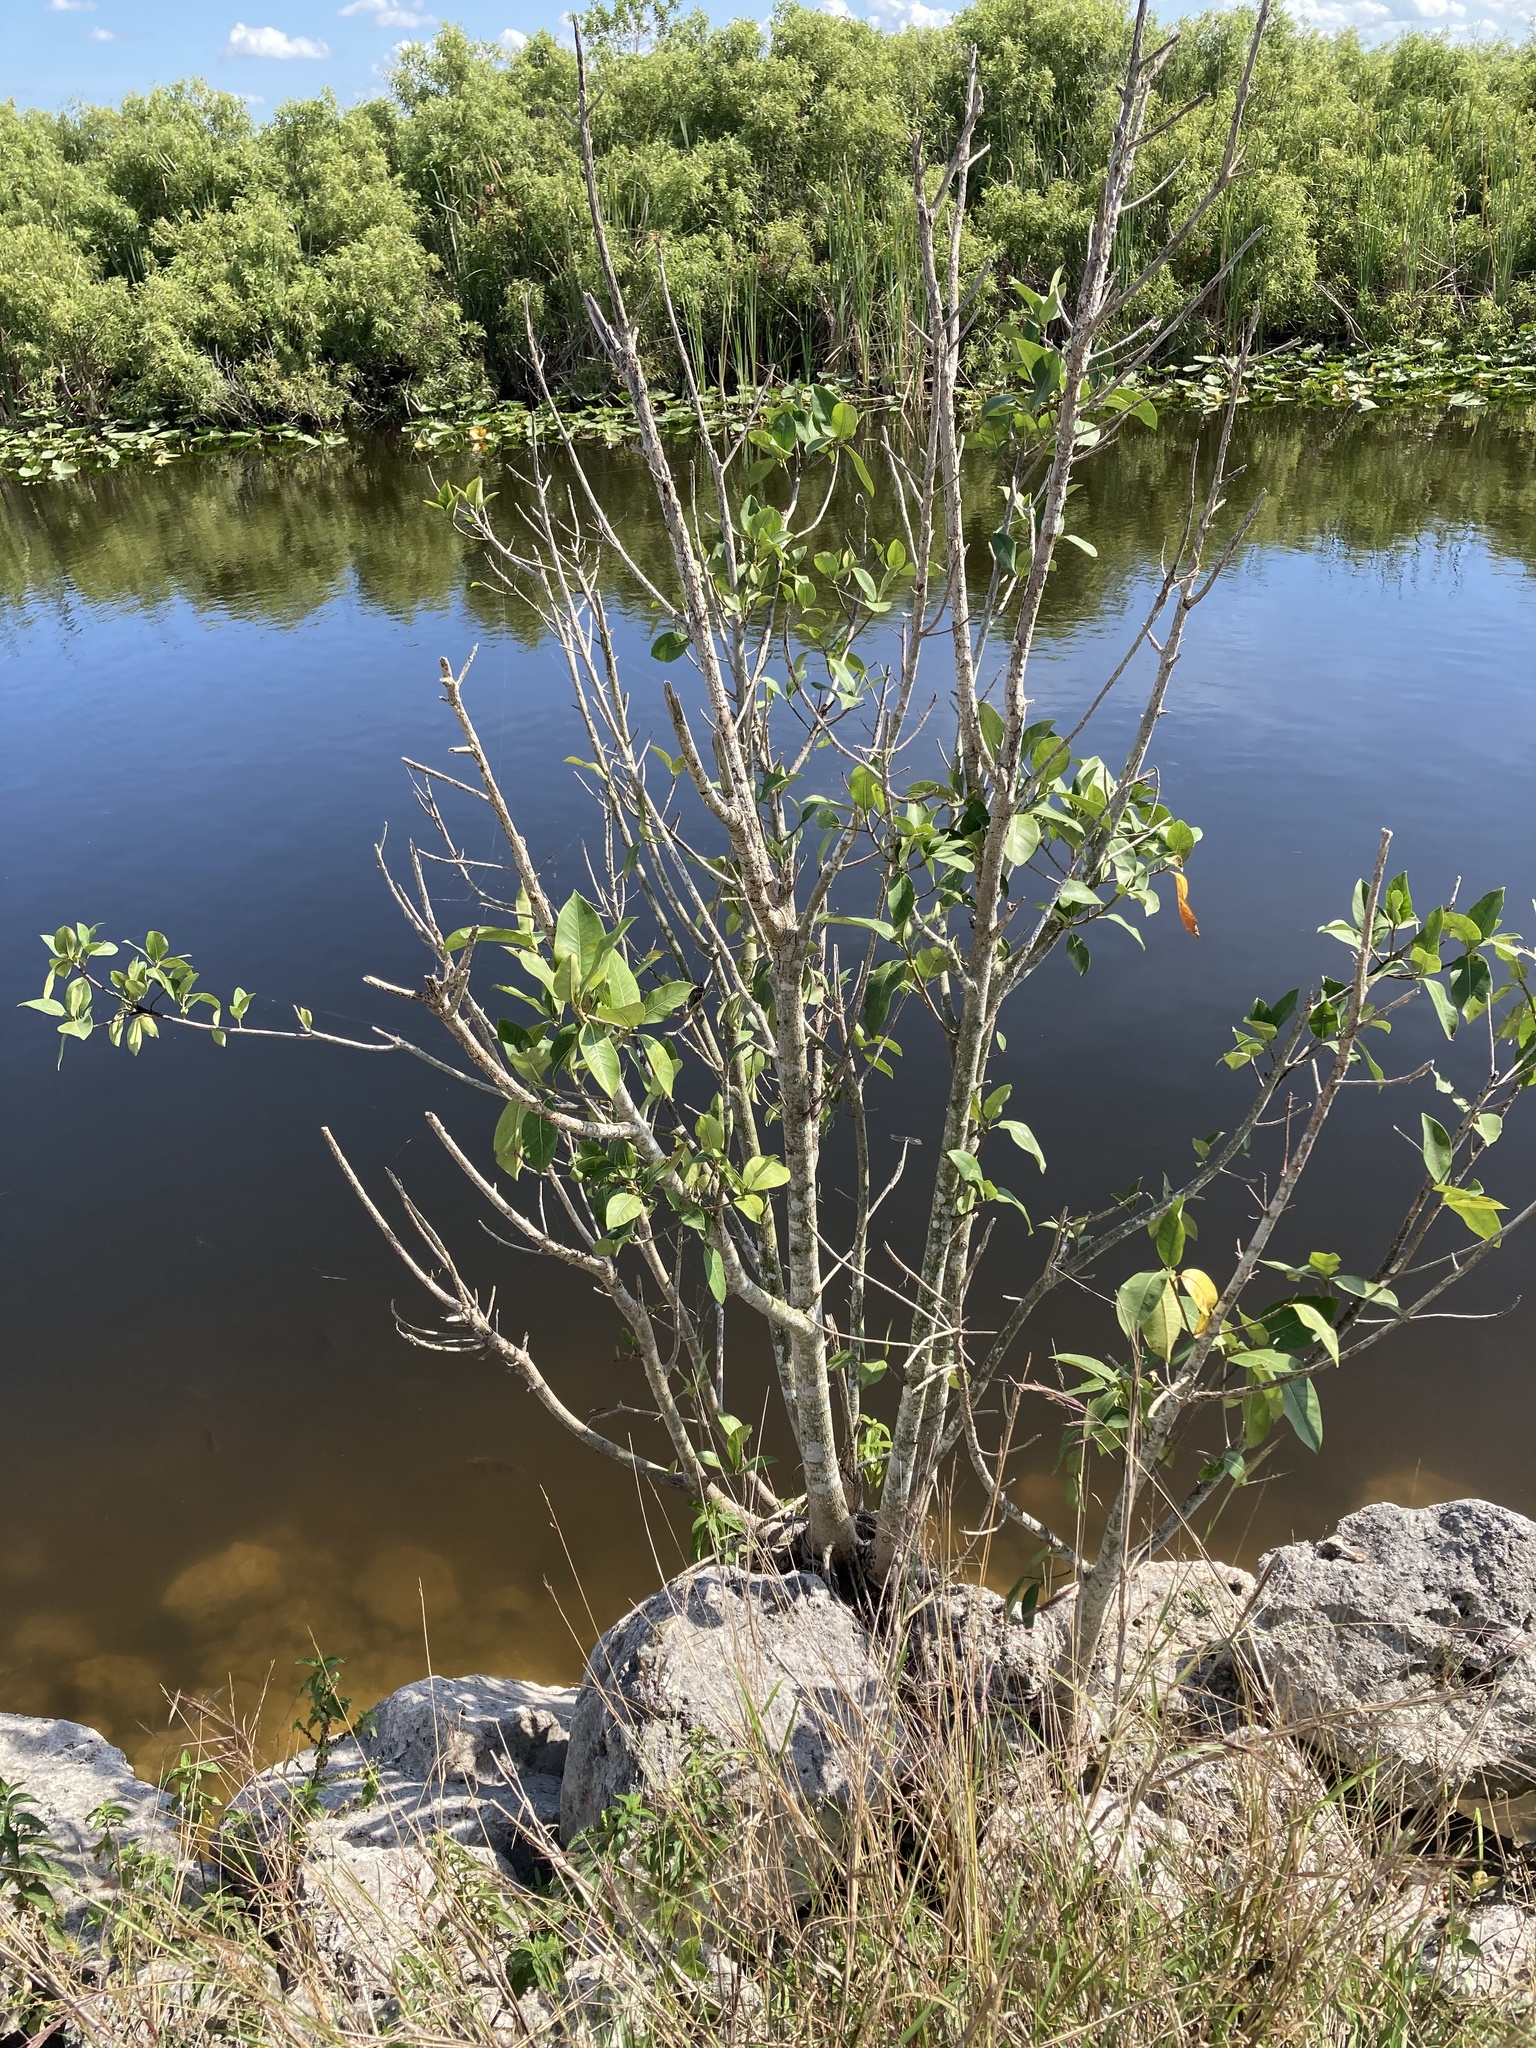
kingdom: Plantae
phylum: Tracheophyta
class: Magnoliopsida
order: Magnoliales
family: Annonaceae
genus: Annona
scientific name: Annona glabra
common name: Monkey apple
